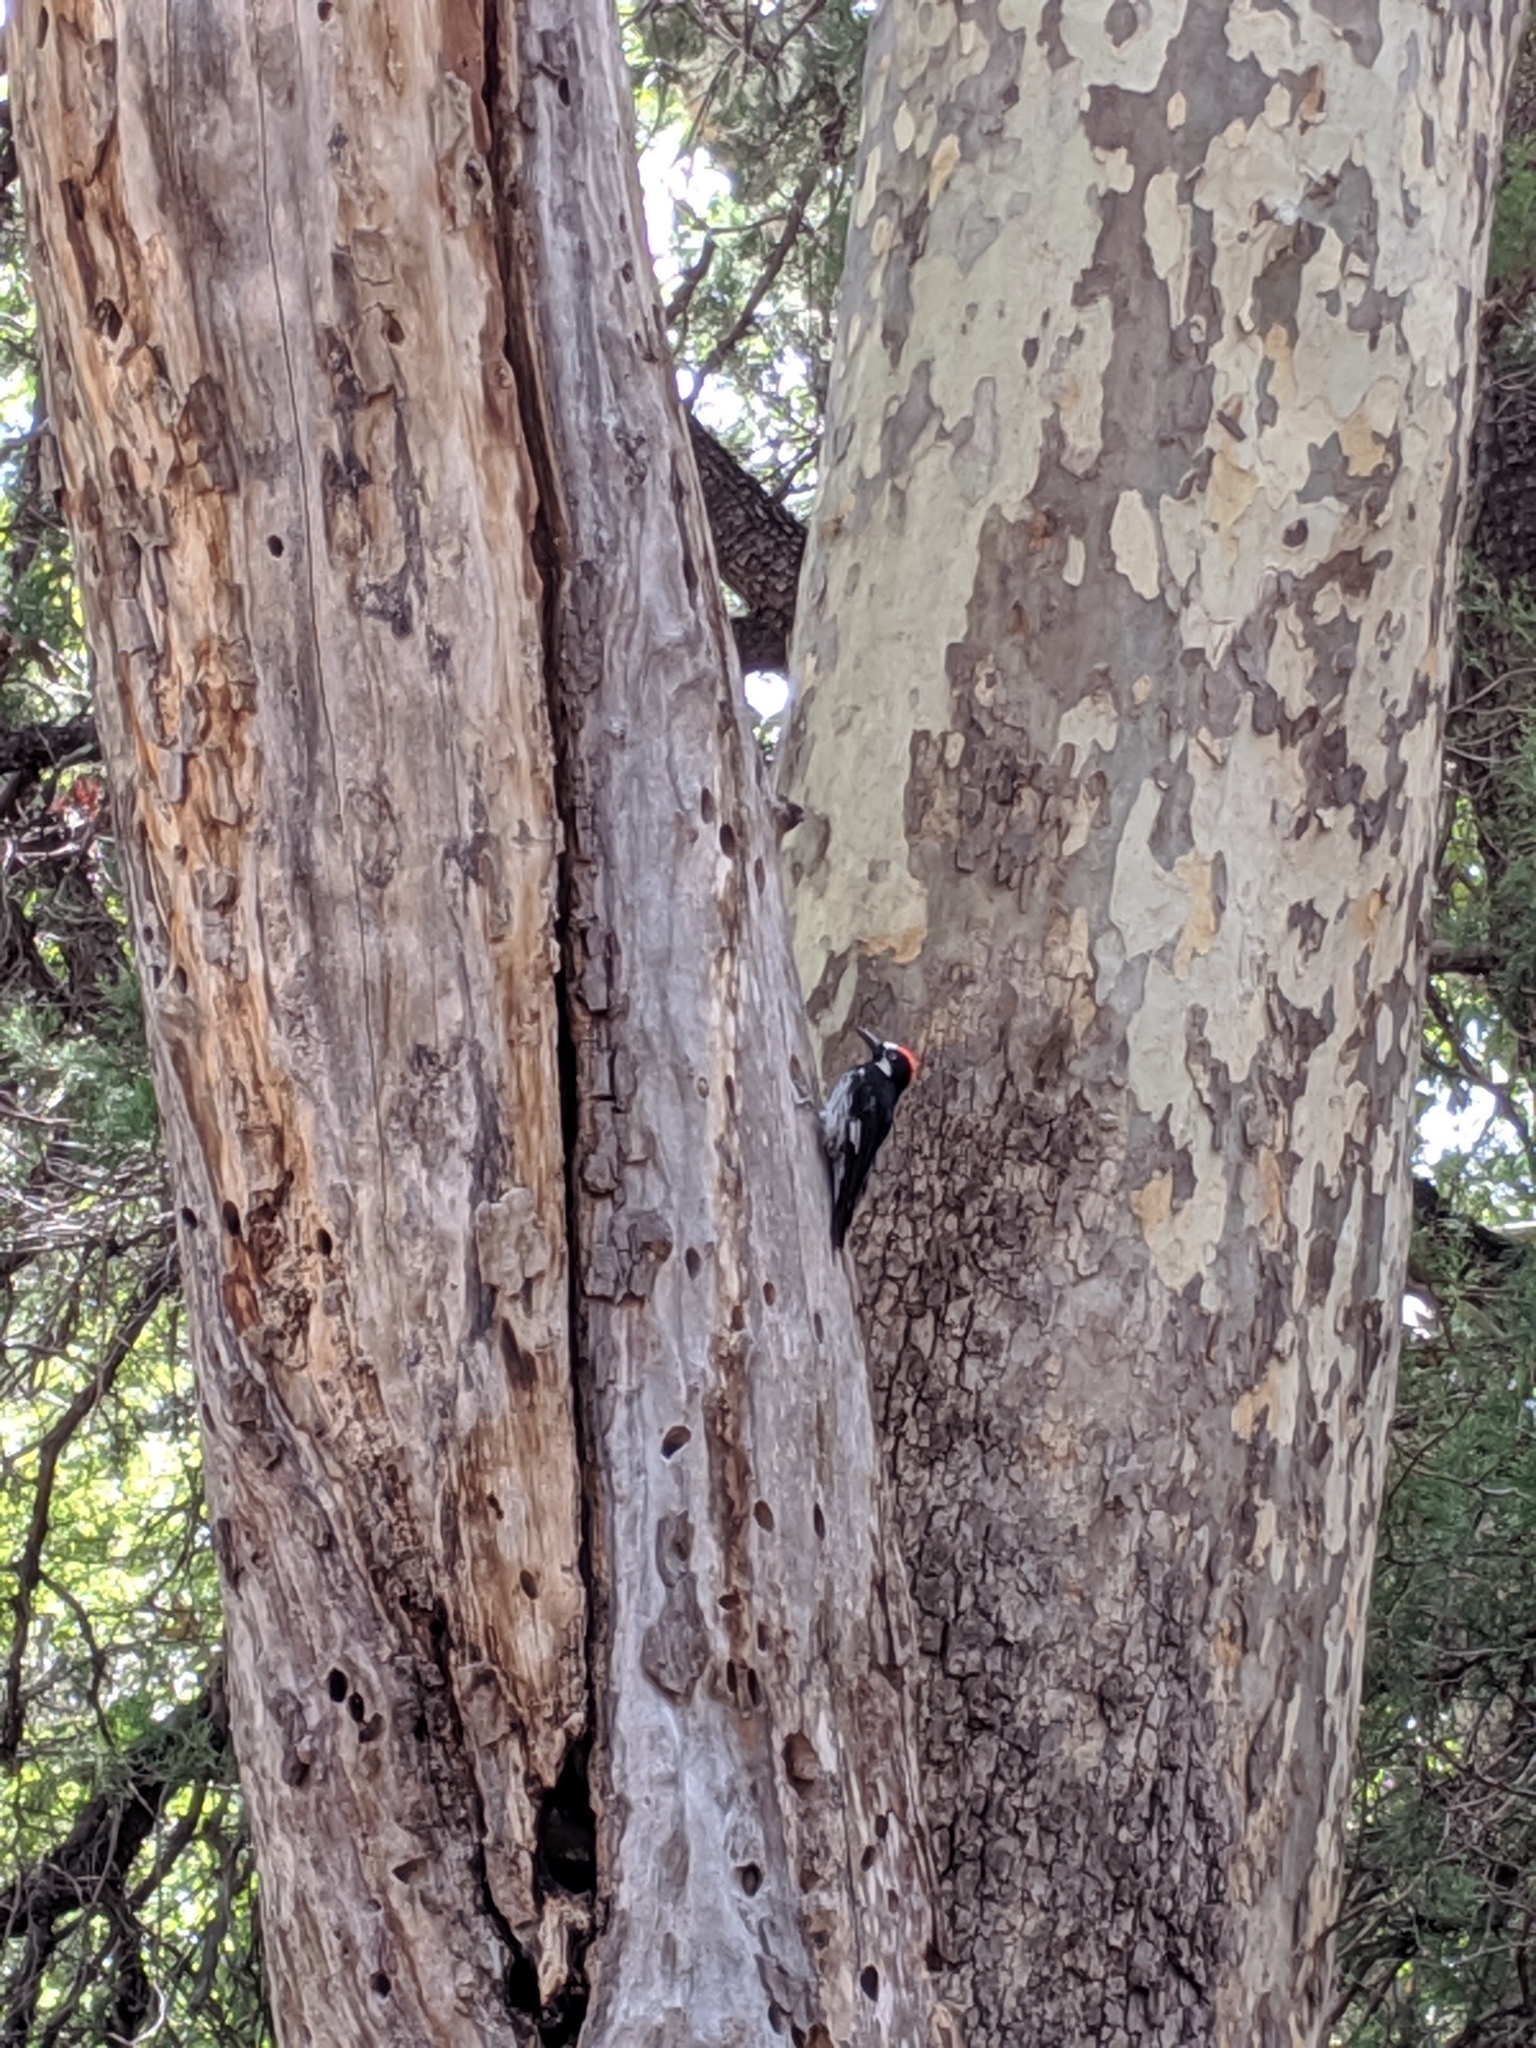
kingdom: Animalia
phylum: Chordata
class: Aves
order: Piciformes
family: Picidae
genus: Melanerpes
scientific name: Melanerpes formicivorus
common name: Acorn woodpecker
